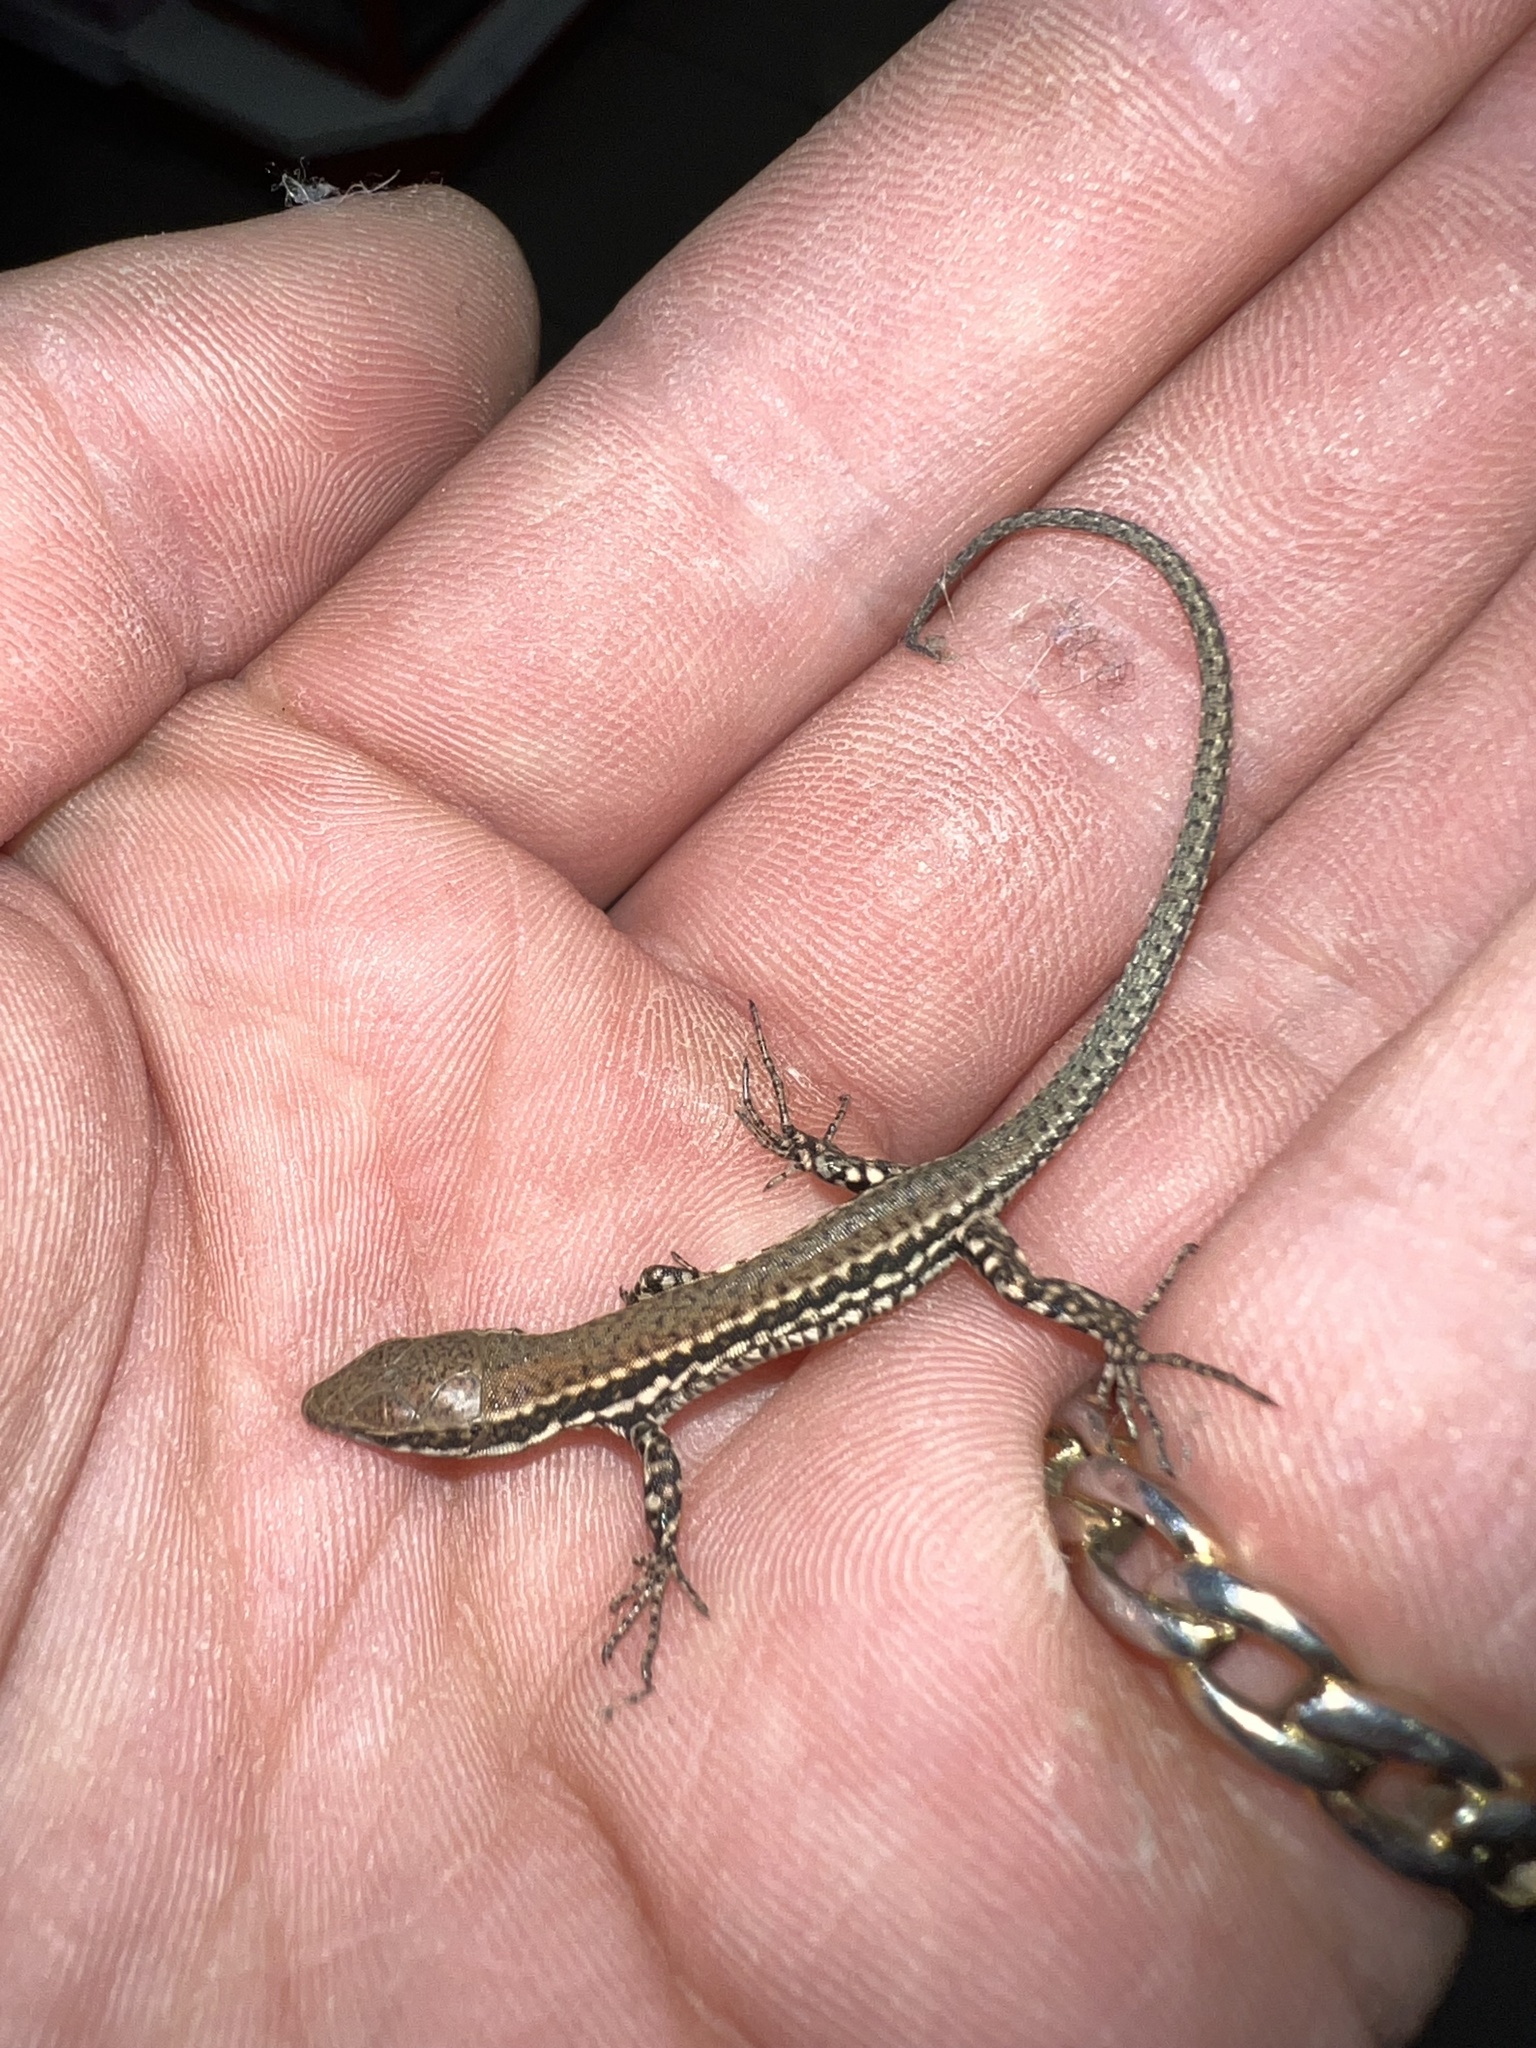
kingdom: Animalia
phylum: Chordata
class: Squamata
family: Lacertidae
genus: Podarcis
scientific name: Podarcis muralis
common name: Common wall lizard
